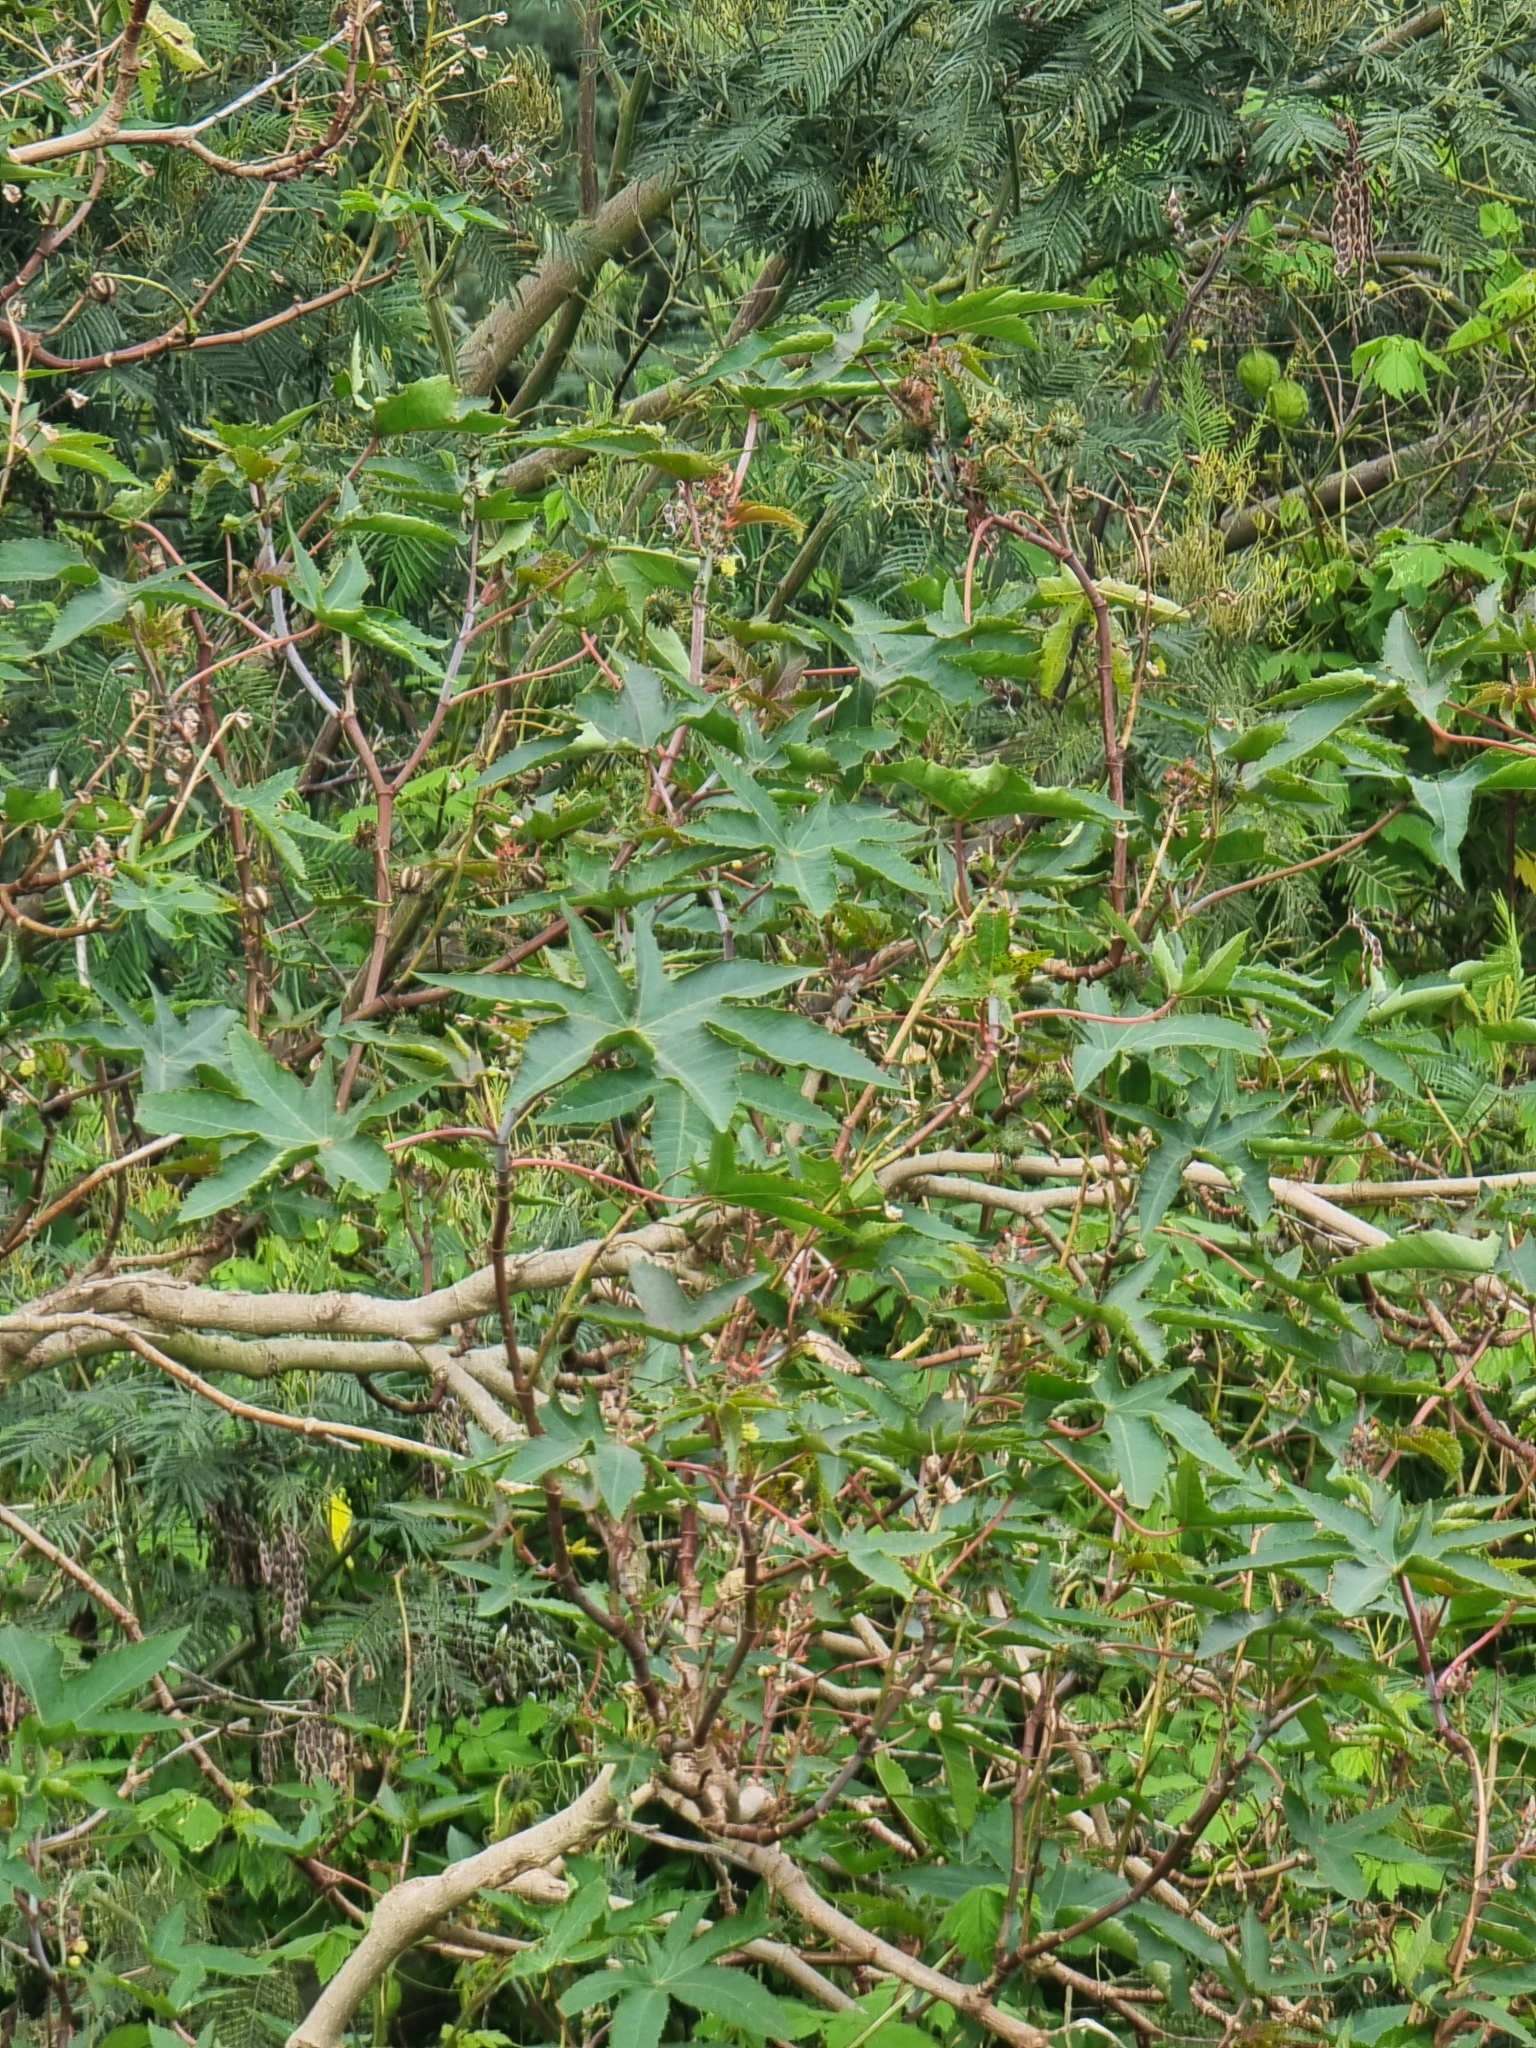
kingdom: Plantae
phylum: Tracheophyta
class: Magnoliopsida
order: Malpighiales
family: Euphorbiaceae
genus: Ricinus
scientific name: Ricinus communis
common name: Castor-oil-plant
